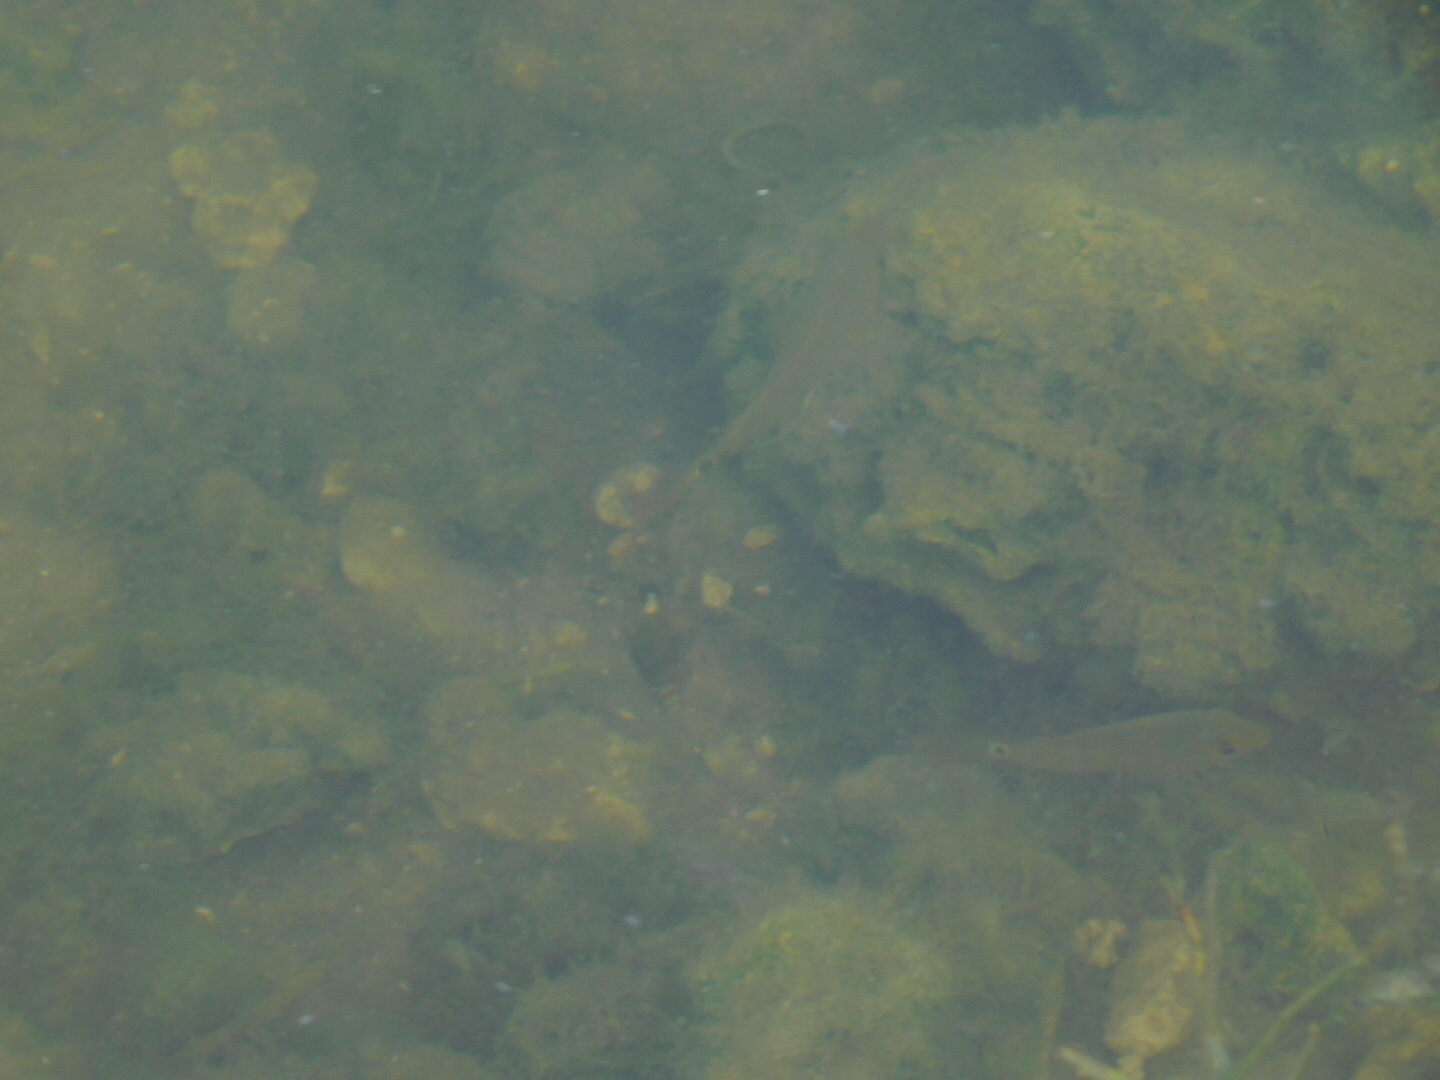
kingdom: Animalia
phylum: Chordata
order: Perciformes
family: Cichlidae
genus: Mayaheros
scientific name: Mayaheros urophthalmus
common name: Mayan cichlid
